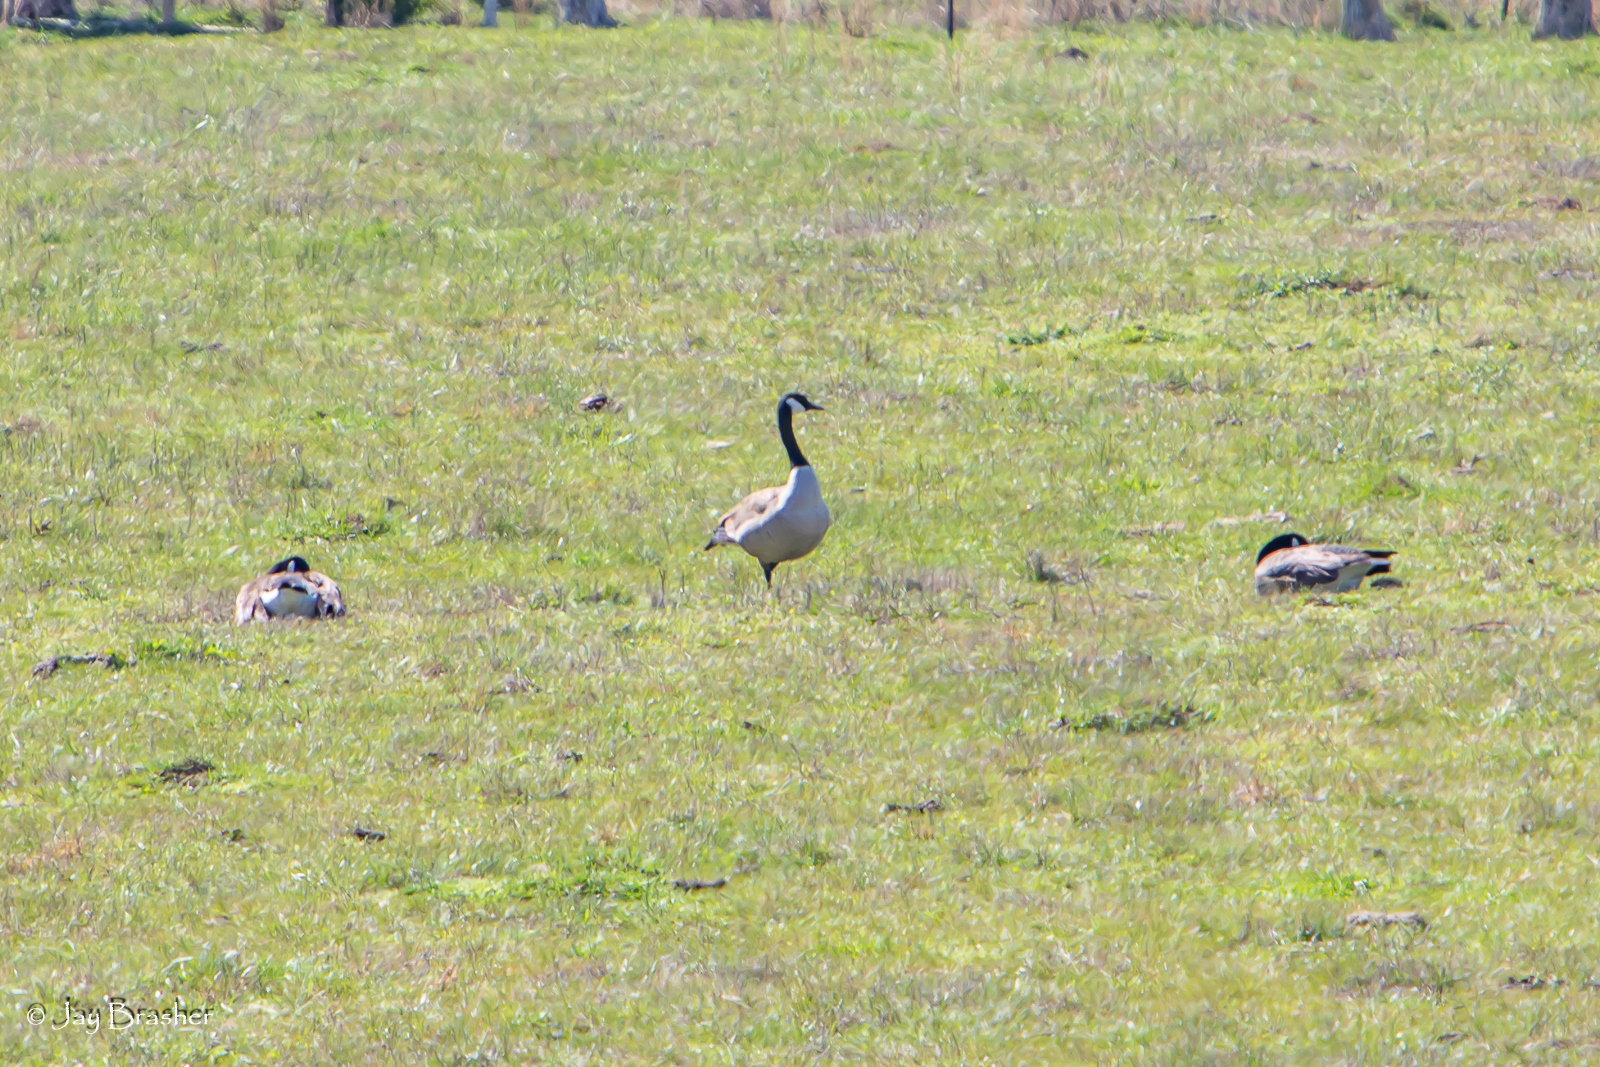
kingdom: Animalia
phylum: Chordata
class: Aves
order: Anseriformes
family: Anatidae
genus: Branta
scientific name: Branta canadensis
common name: Canada goose
